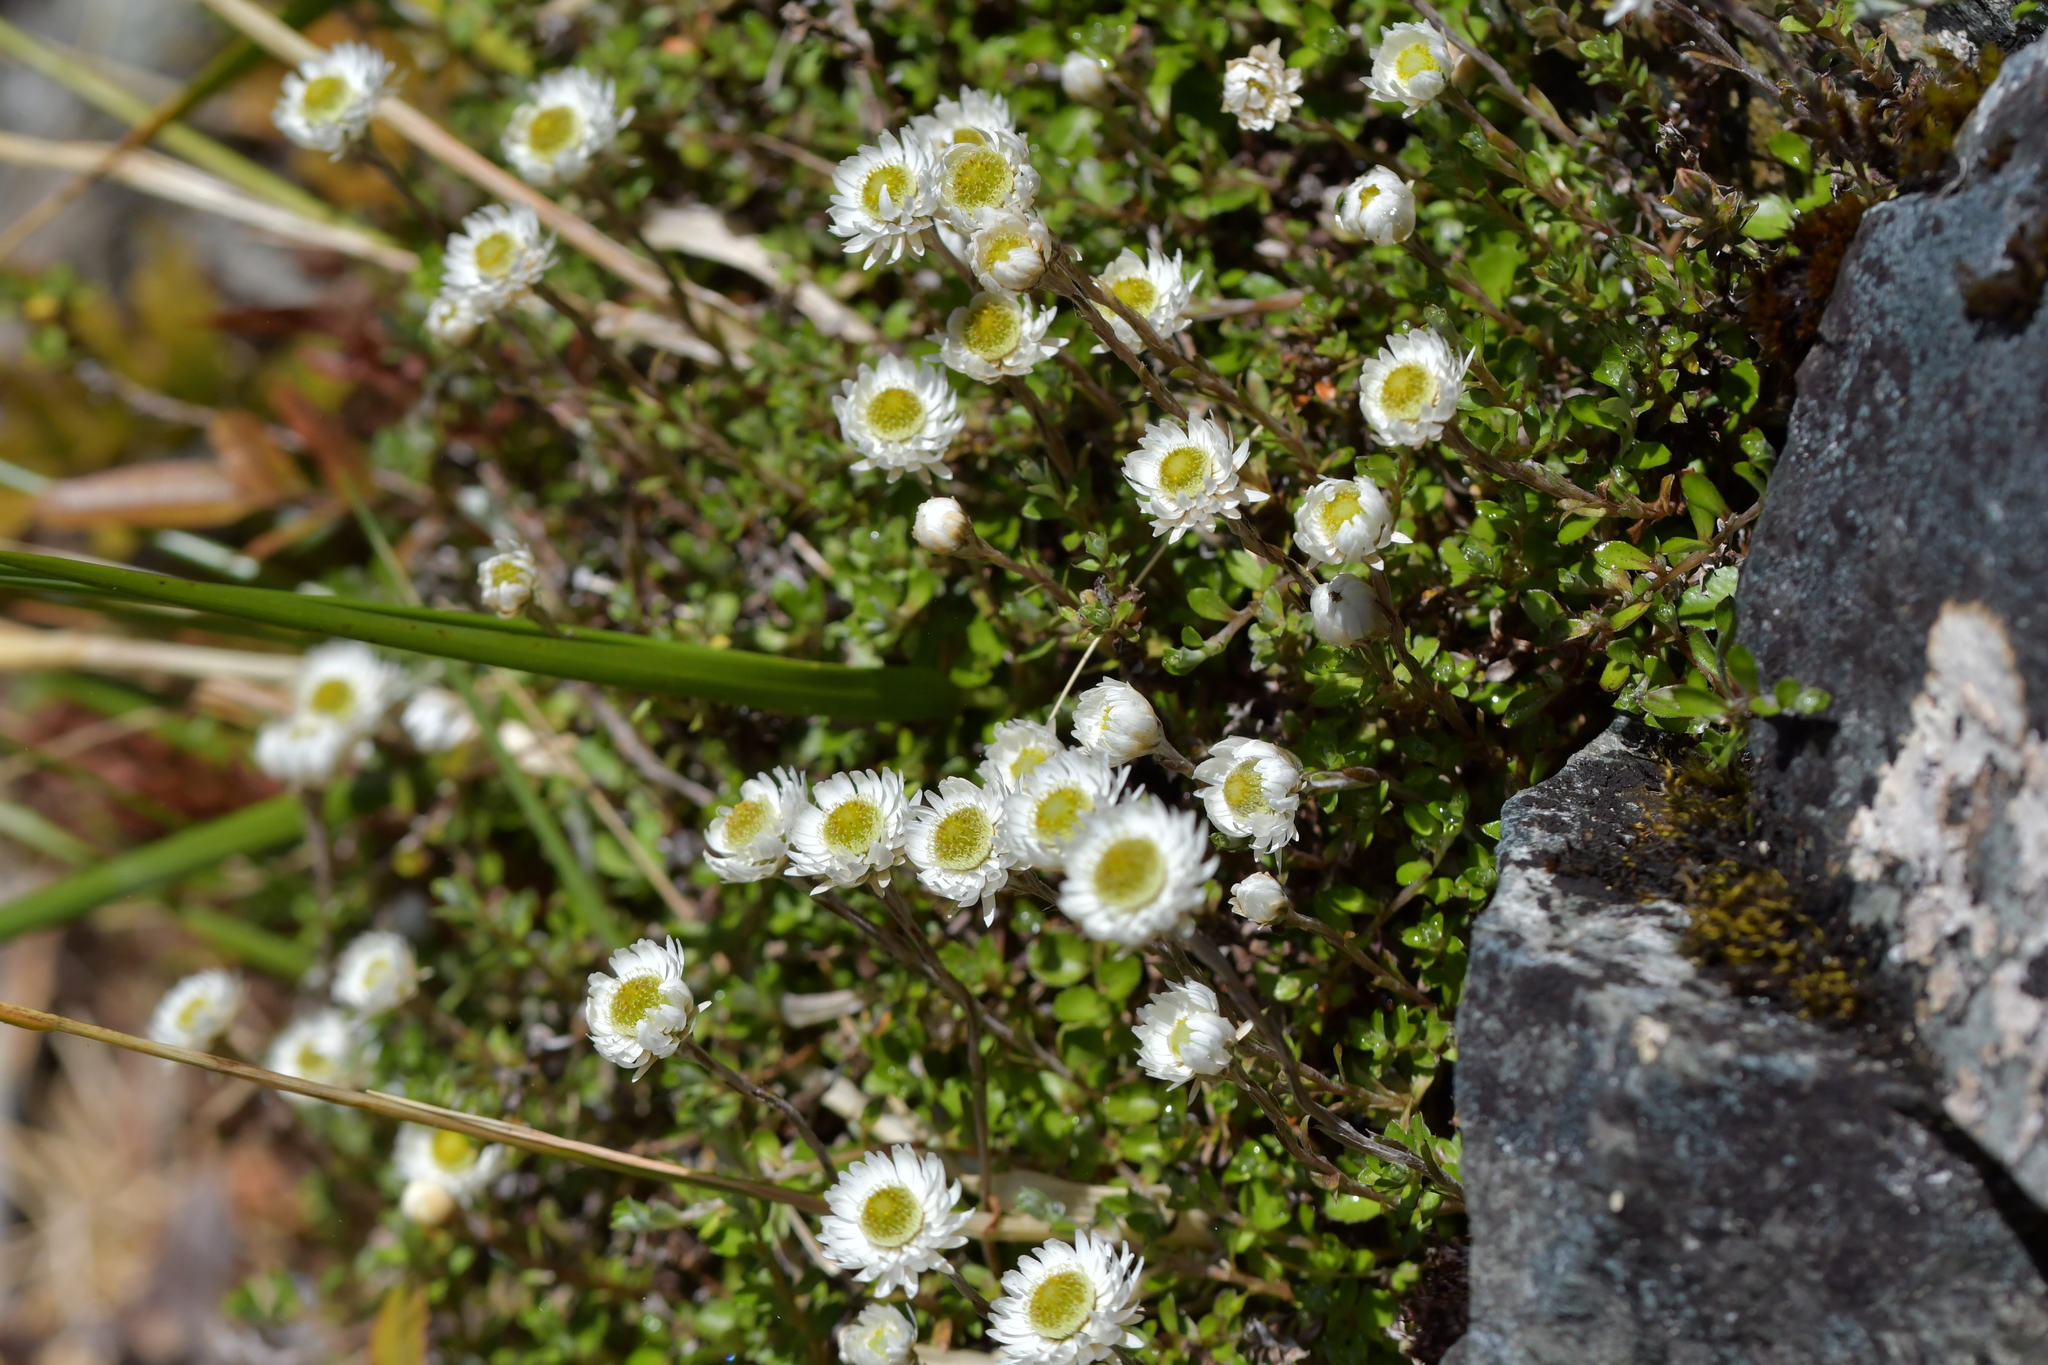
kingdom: Plantae
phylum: Tracheophyta
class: Magnoliopsida
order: Asterales
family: Asteraceae
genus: Anaphalioides
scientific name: Anaphalioides bellidioides
